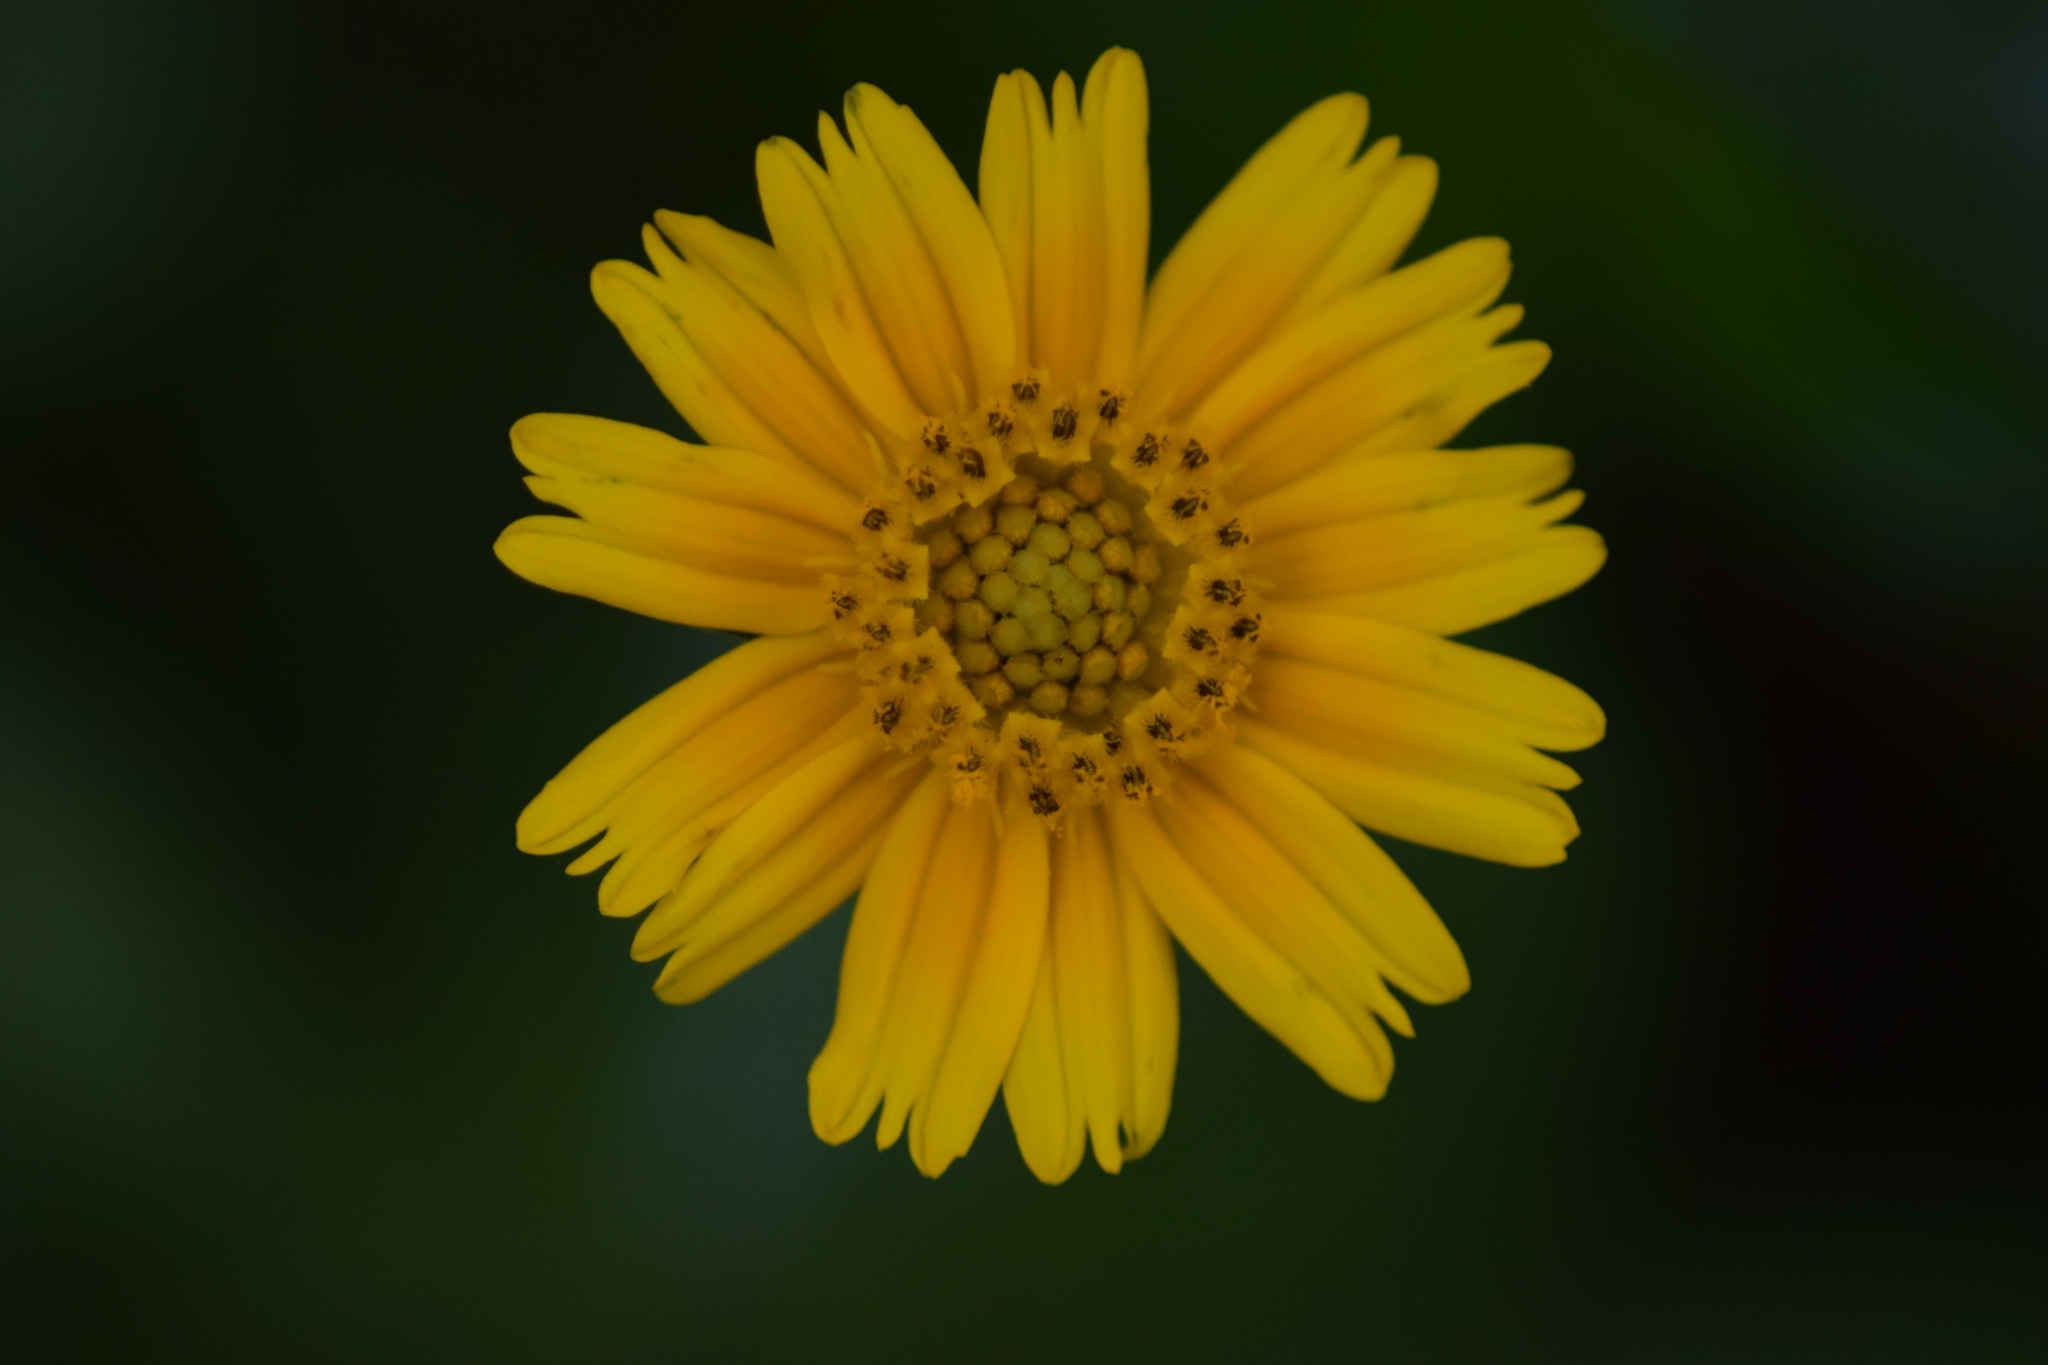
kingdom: Plantae
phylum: Tracheophyta
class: Magnoliopsida
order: Asterales
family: Asteraceae
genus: Sphagneticola
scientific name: Sphagneticola trilobata
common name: Bay biscayne creeping-oxeye
